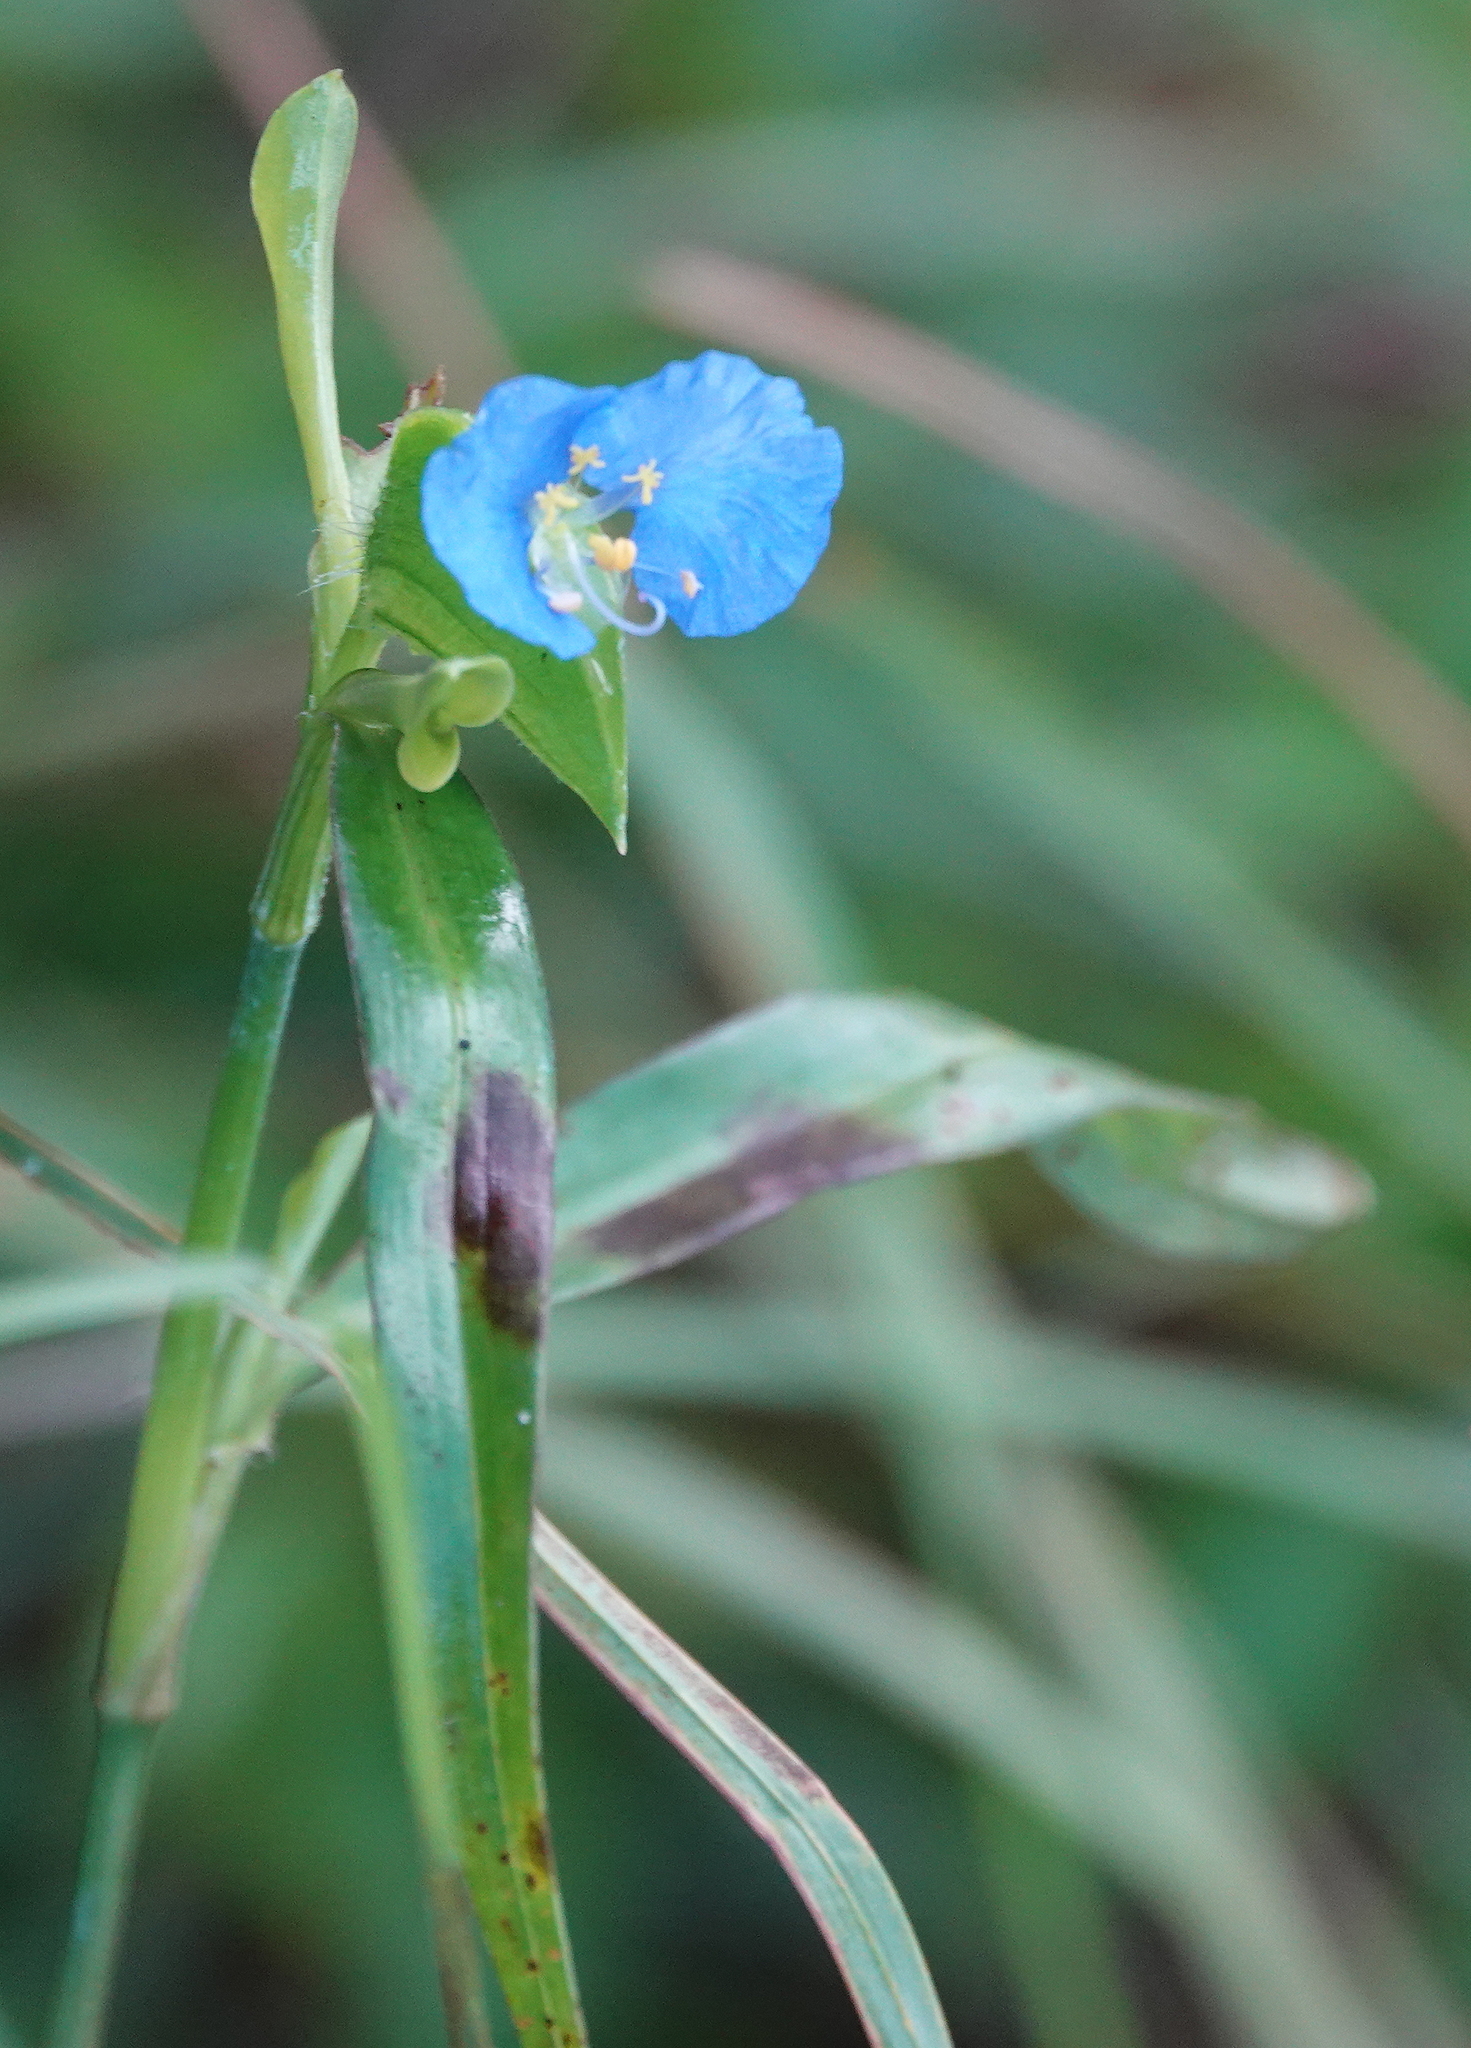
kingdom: Plantae
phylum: Tracheophyta
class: Liliopsida
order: Commelinales
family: Commelinaceae
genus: Commelina
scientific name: Commelina erecta
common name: Blousel blommetjie
